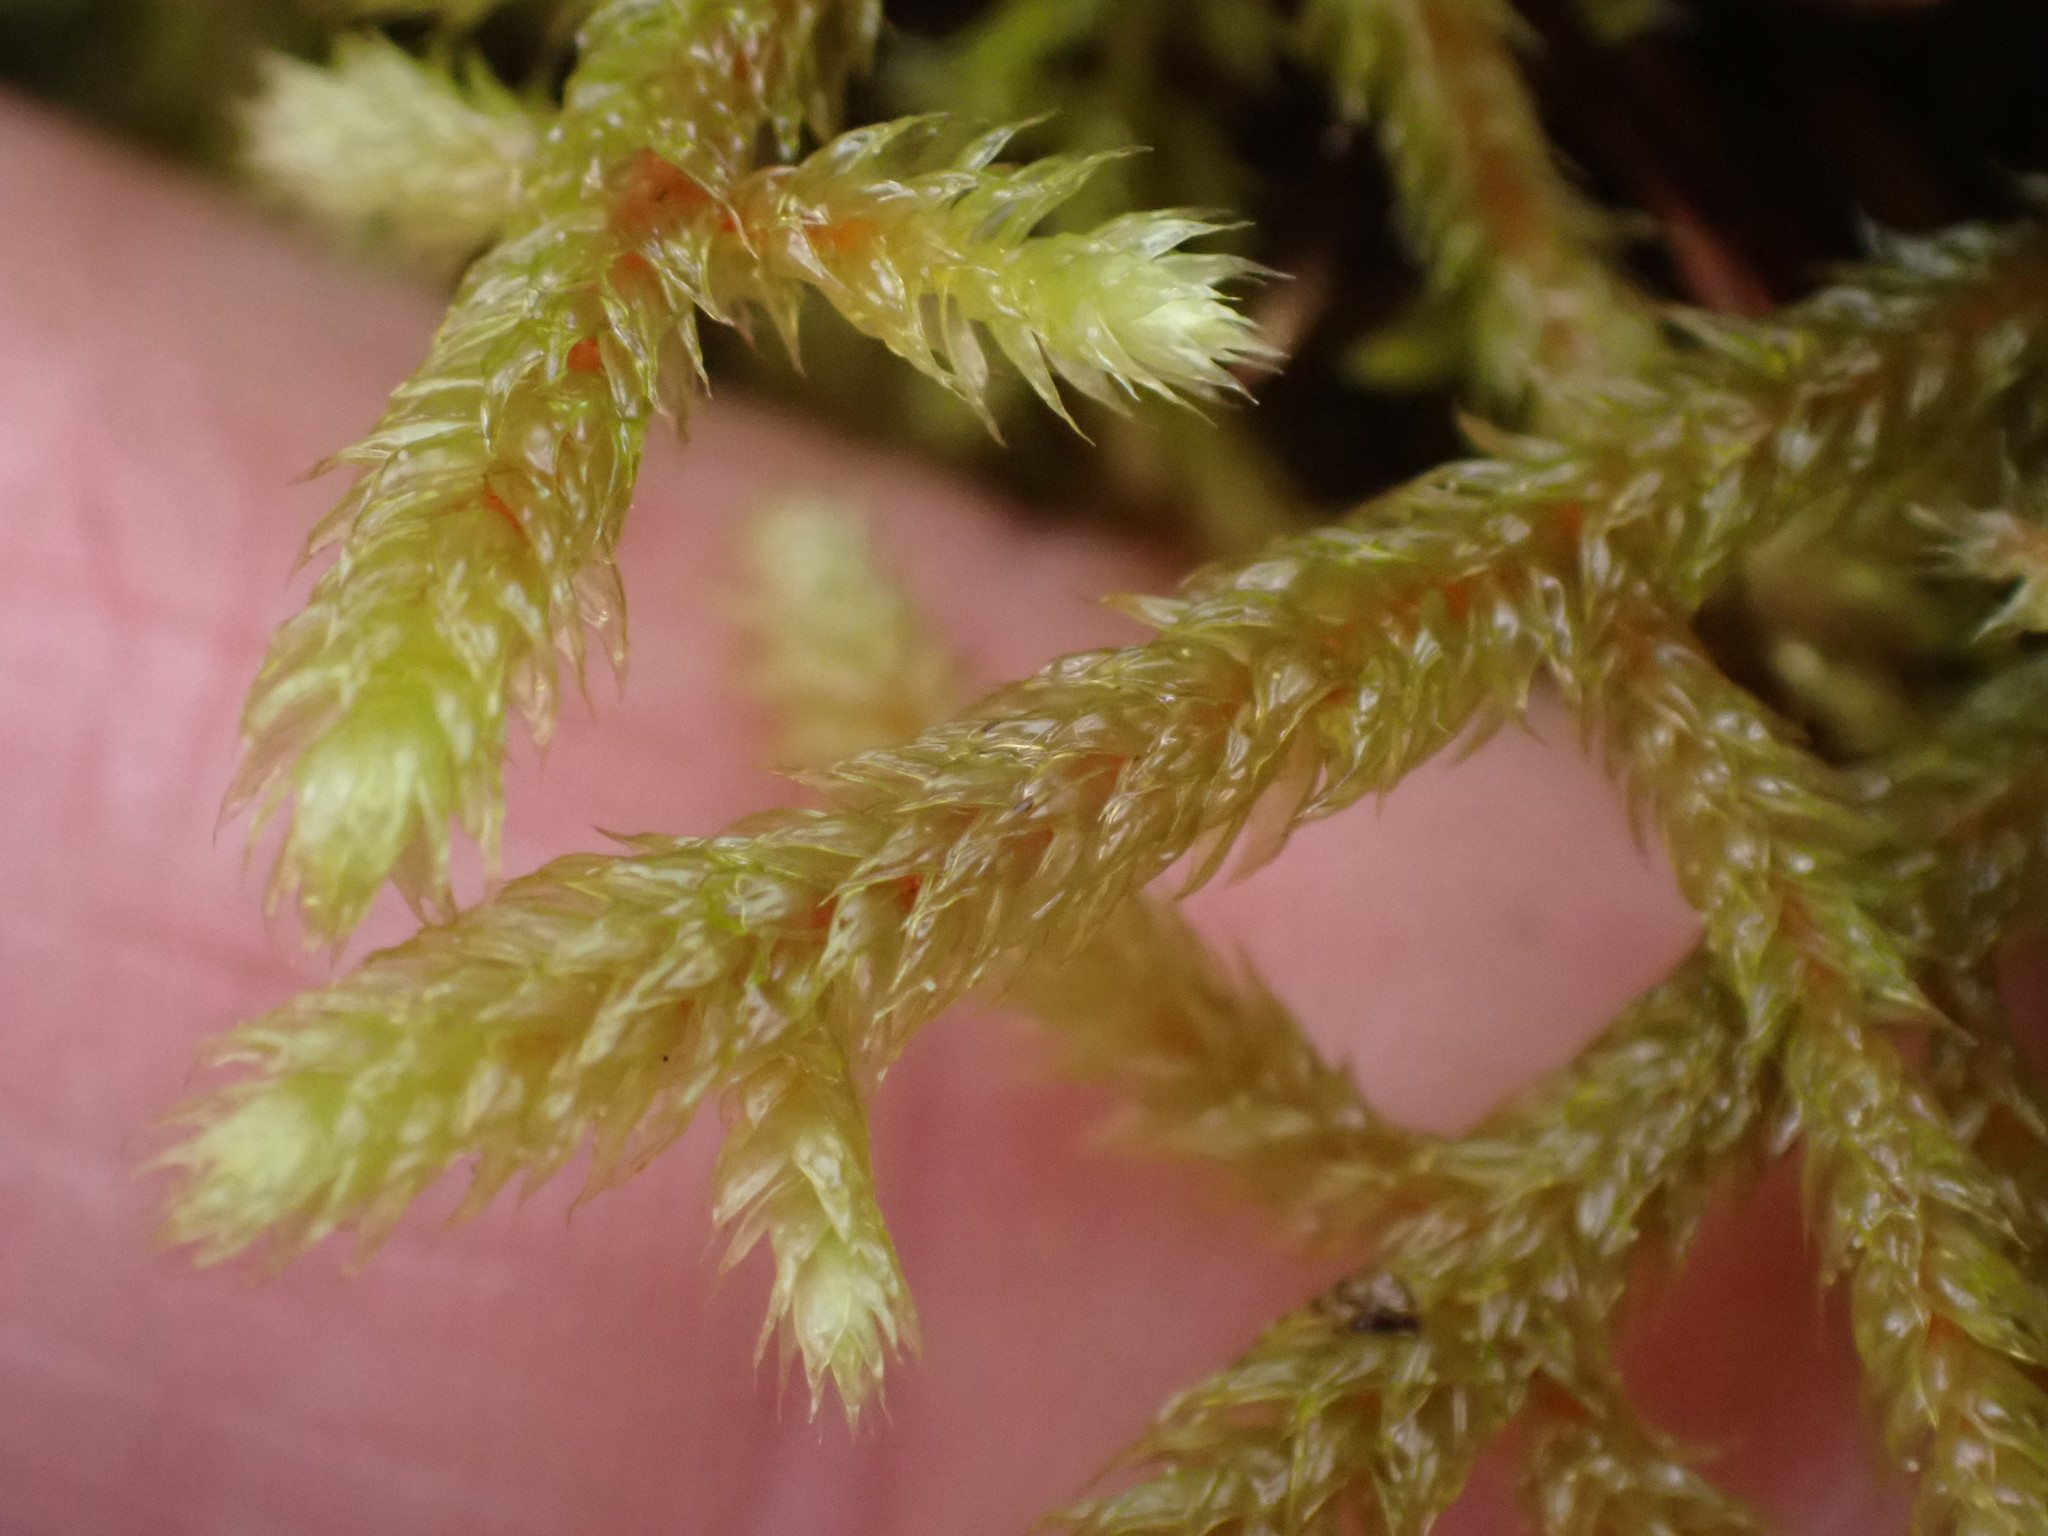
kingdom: Plantae
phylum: Bryophyta
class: Bryopsida
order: Hypnales
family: Antitrichiaceae
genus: Antitrichia
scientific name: Antitrichia curtipendula
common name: Pendulous wing-moss
